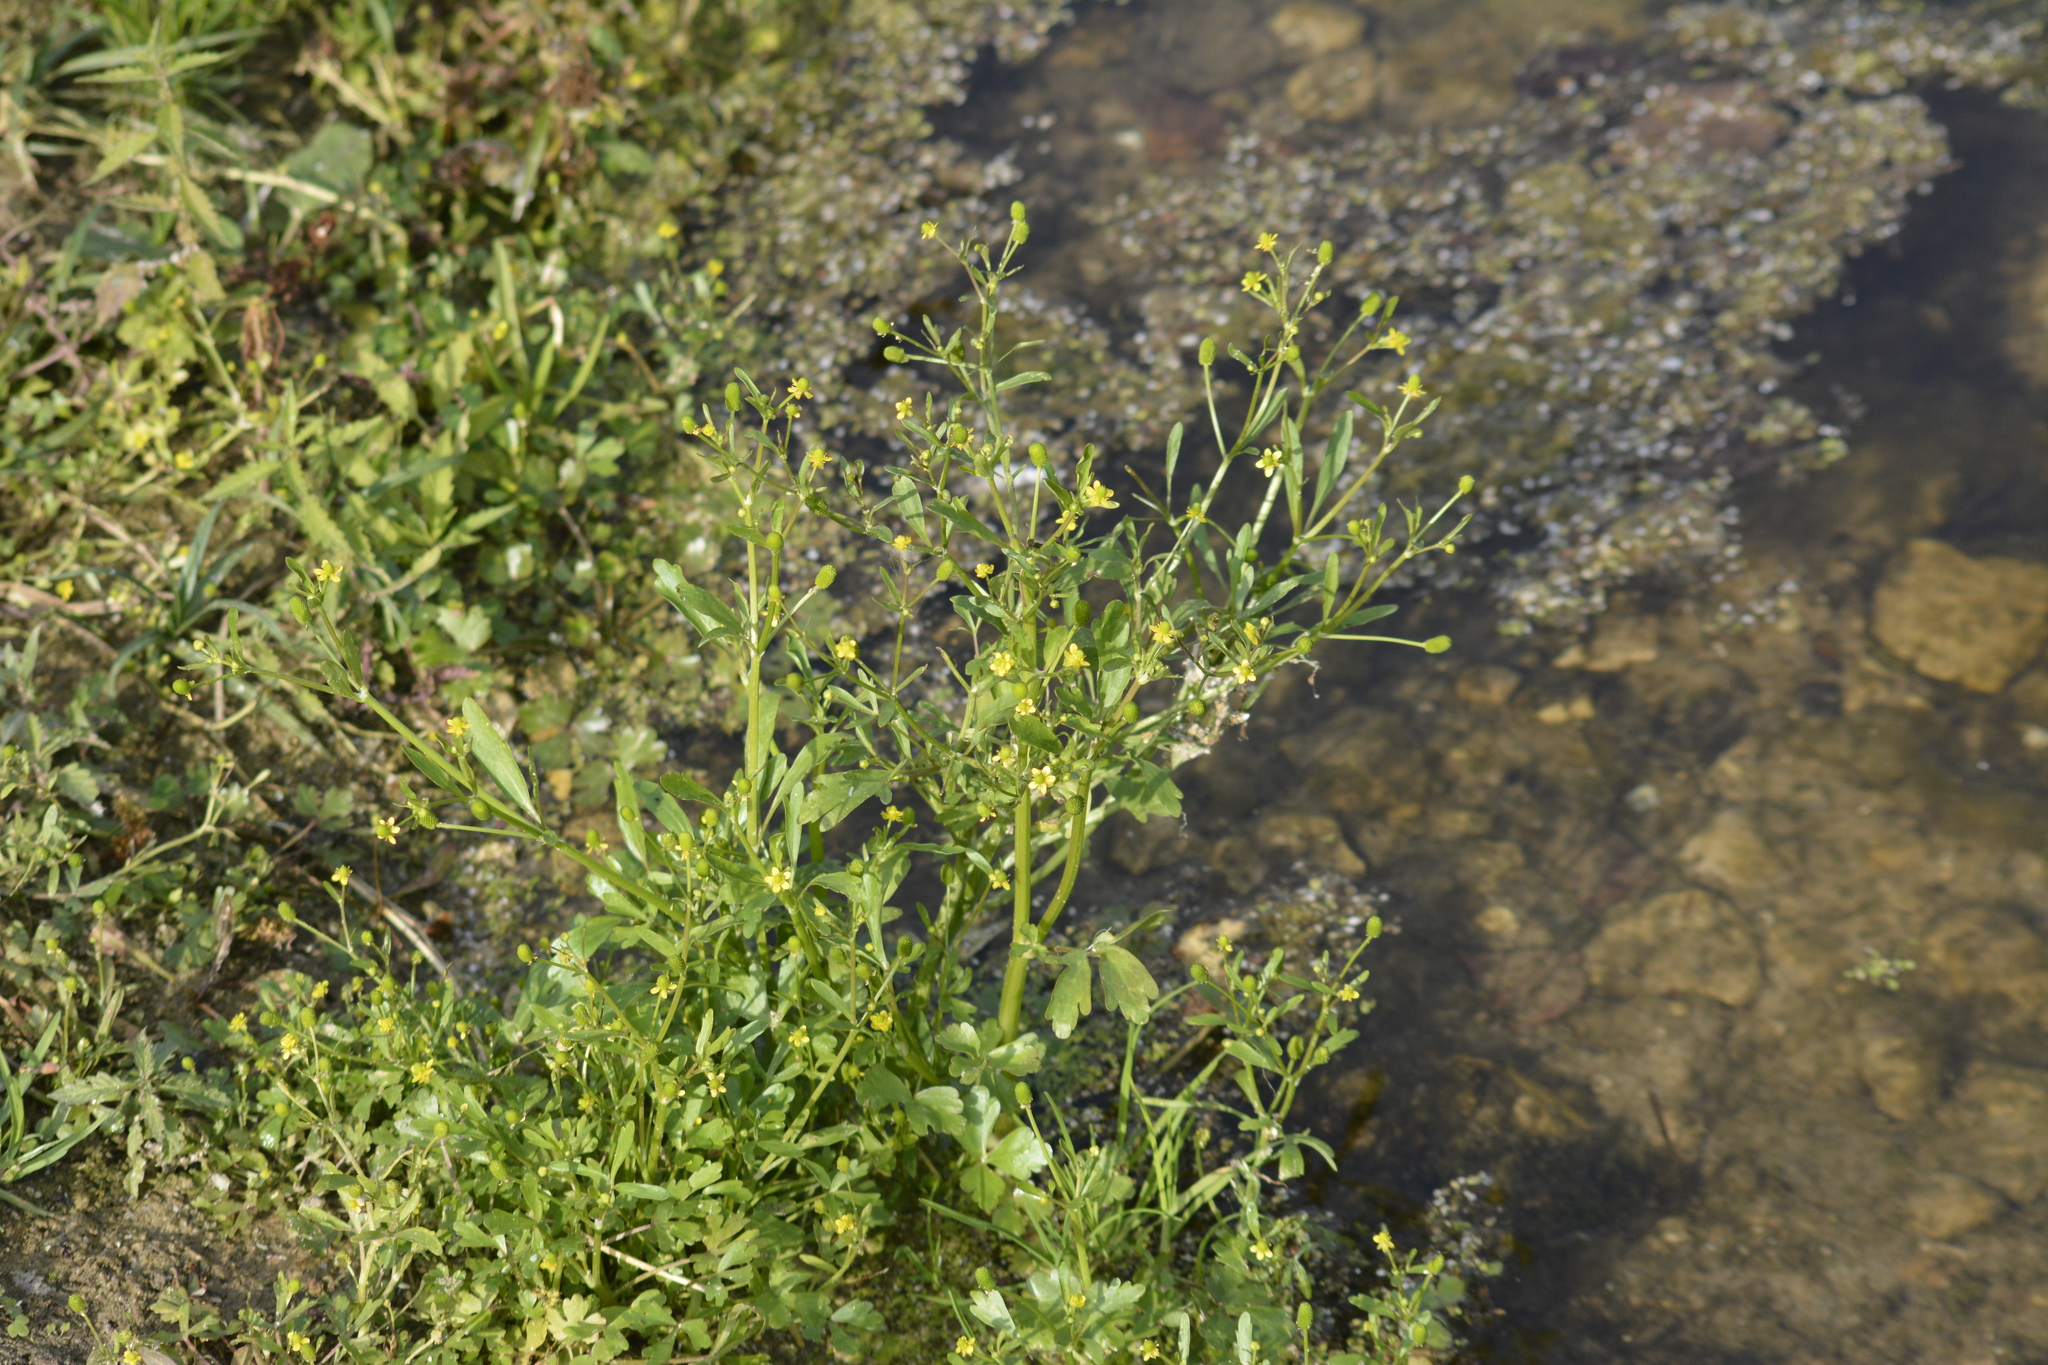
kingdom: Plantae
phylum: Tracheophyta
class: Magnoliopsida
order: Ranunculales
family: Ranunculaceae
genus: Ranunculus
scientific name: Ranunculus sceleratus
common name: Celery-leaved buttercup
